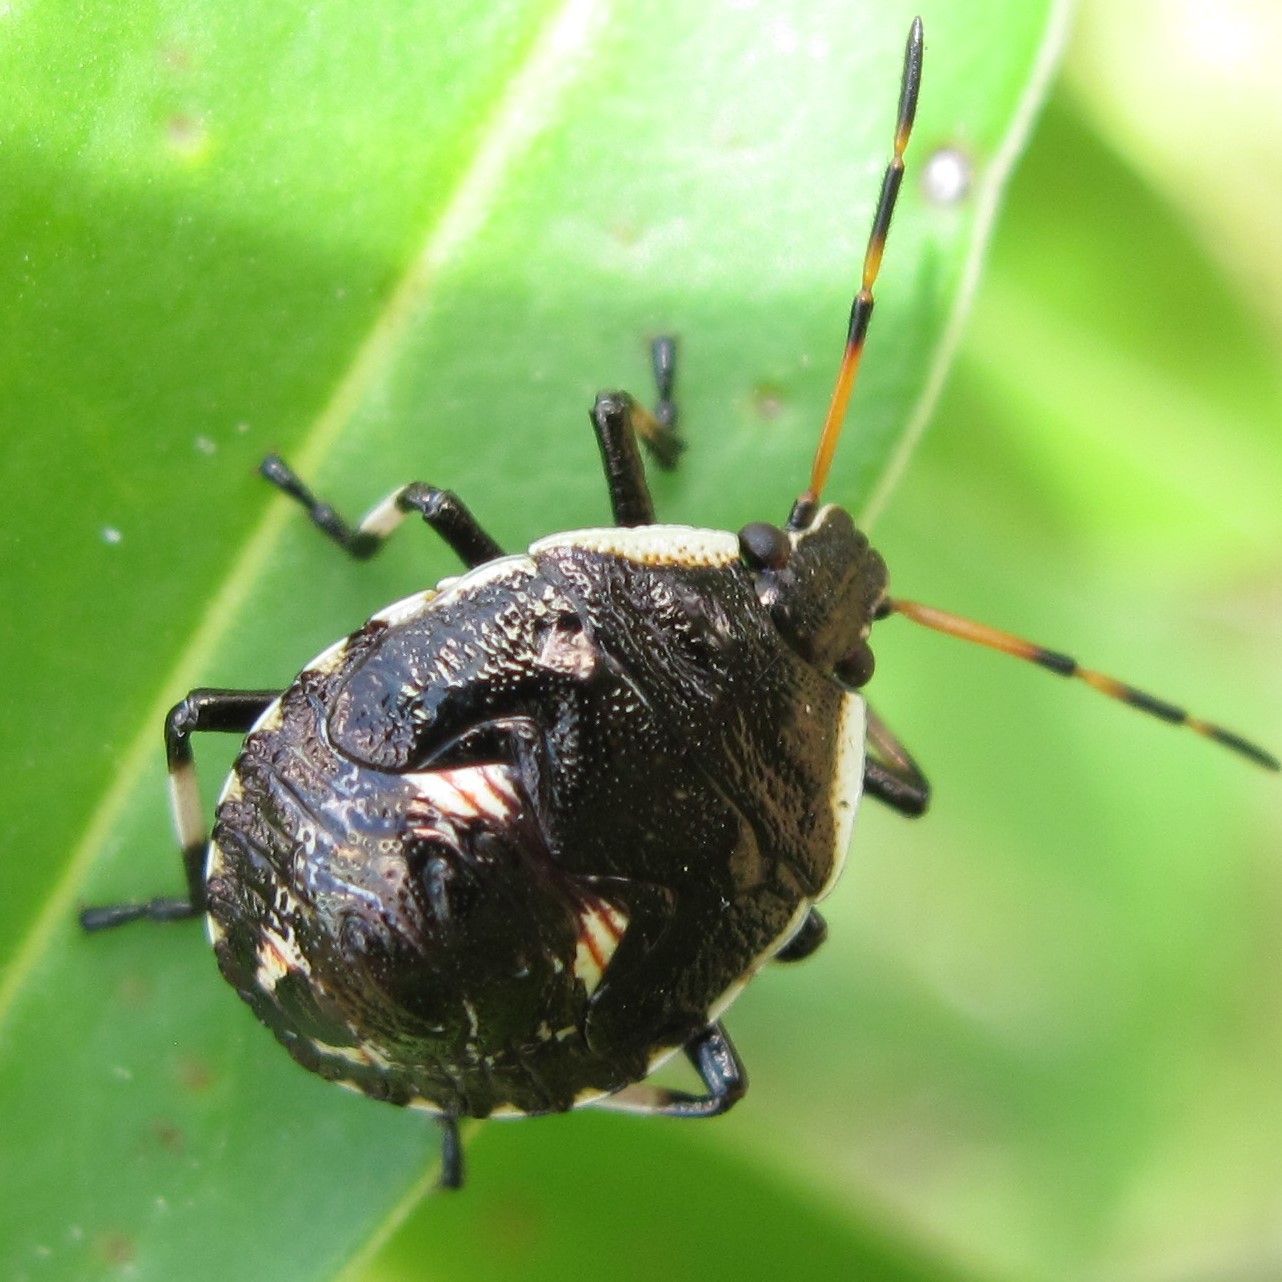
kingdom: Animalia
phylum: Arthropoda
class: Insecta
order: Hemiptera
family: Pentatomidae
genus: Cermatulus
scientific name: Cermatulus nasalis
